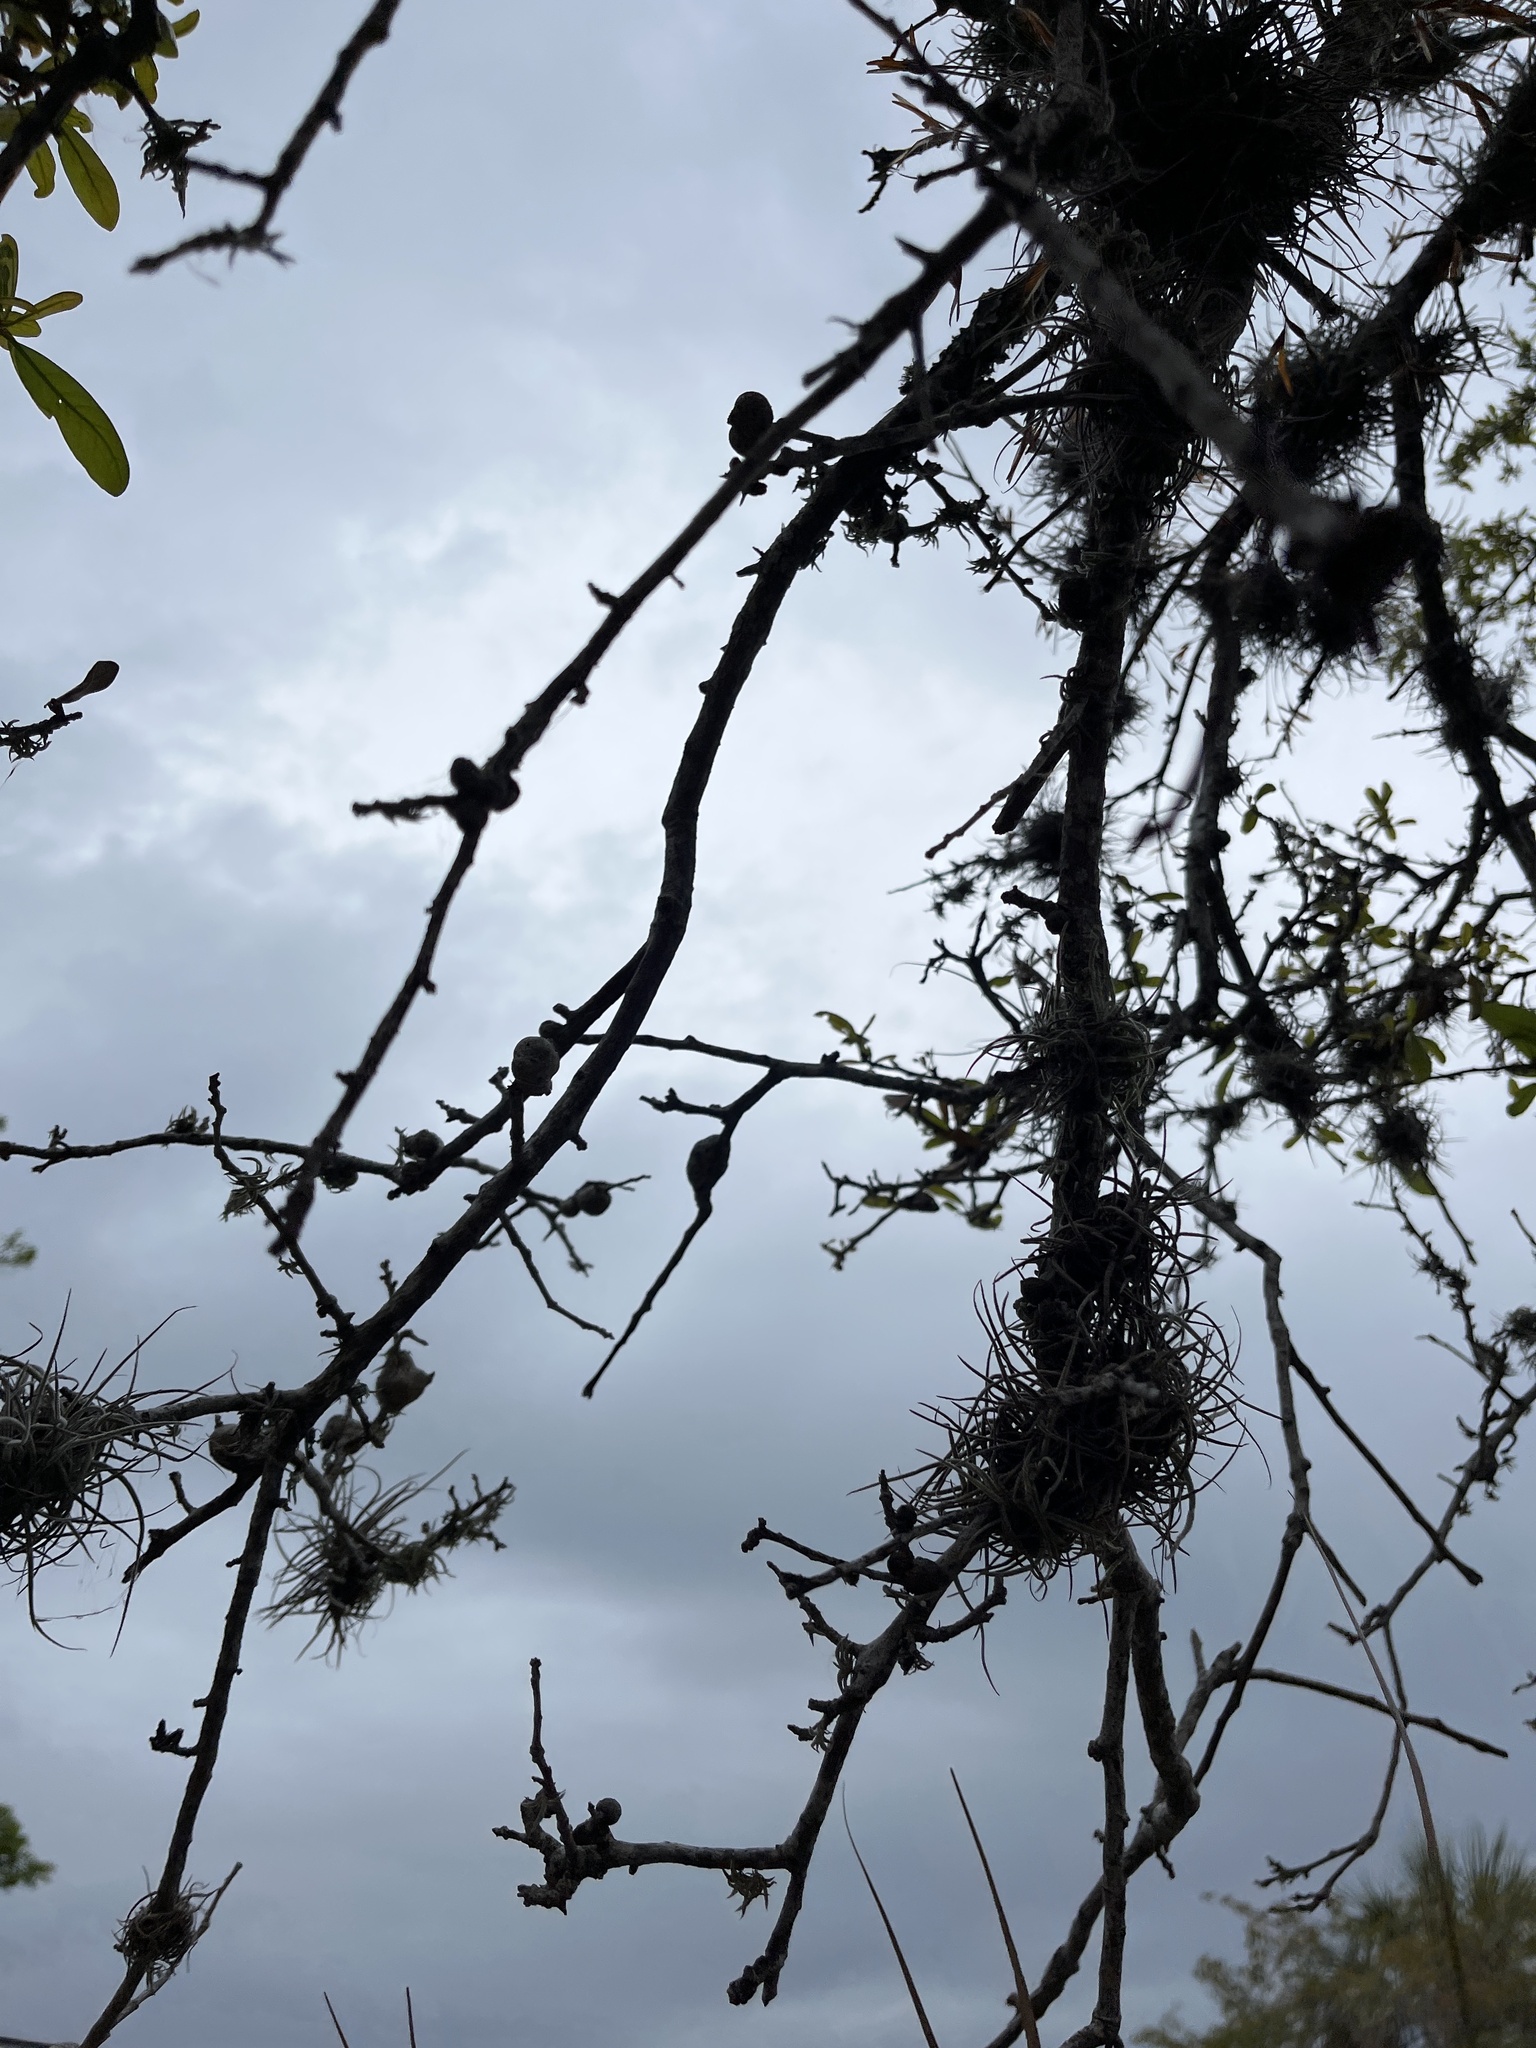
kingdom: Plantae
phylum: Tracheophyta
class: Liliopsida
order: Poales
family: Bromeliaceae
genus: Tillandsia
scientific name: Tillandsia recurvata
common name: Small ballmoss
